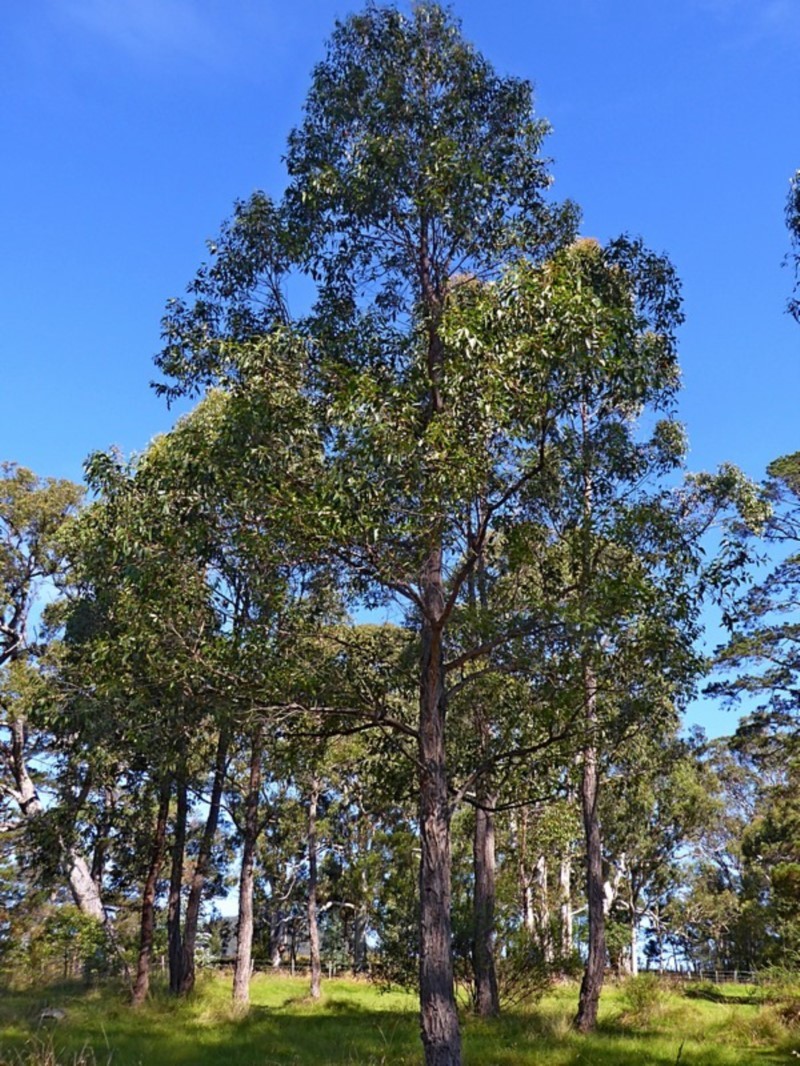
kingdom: Plantae
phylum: Tracheophyta
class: Magnoliopsida
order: Myrtales
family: Myrtaceae
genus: Eucalyptus
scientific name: Eucalyptus globoidea
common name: White-stringybark
